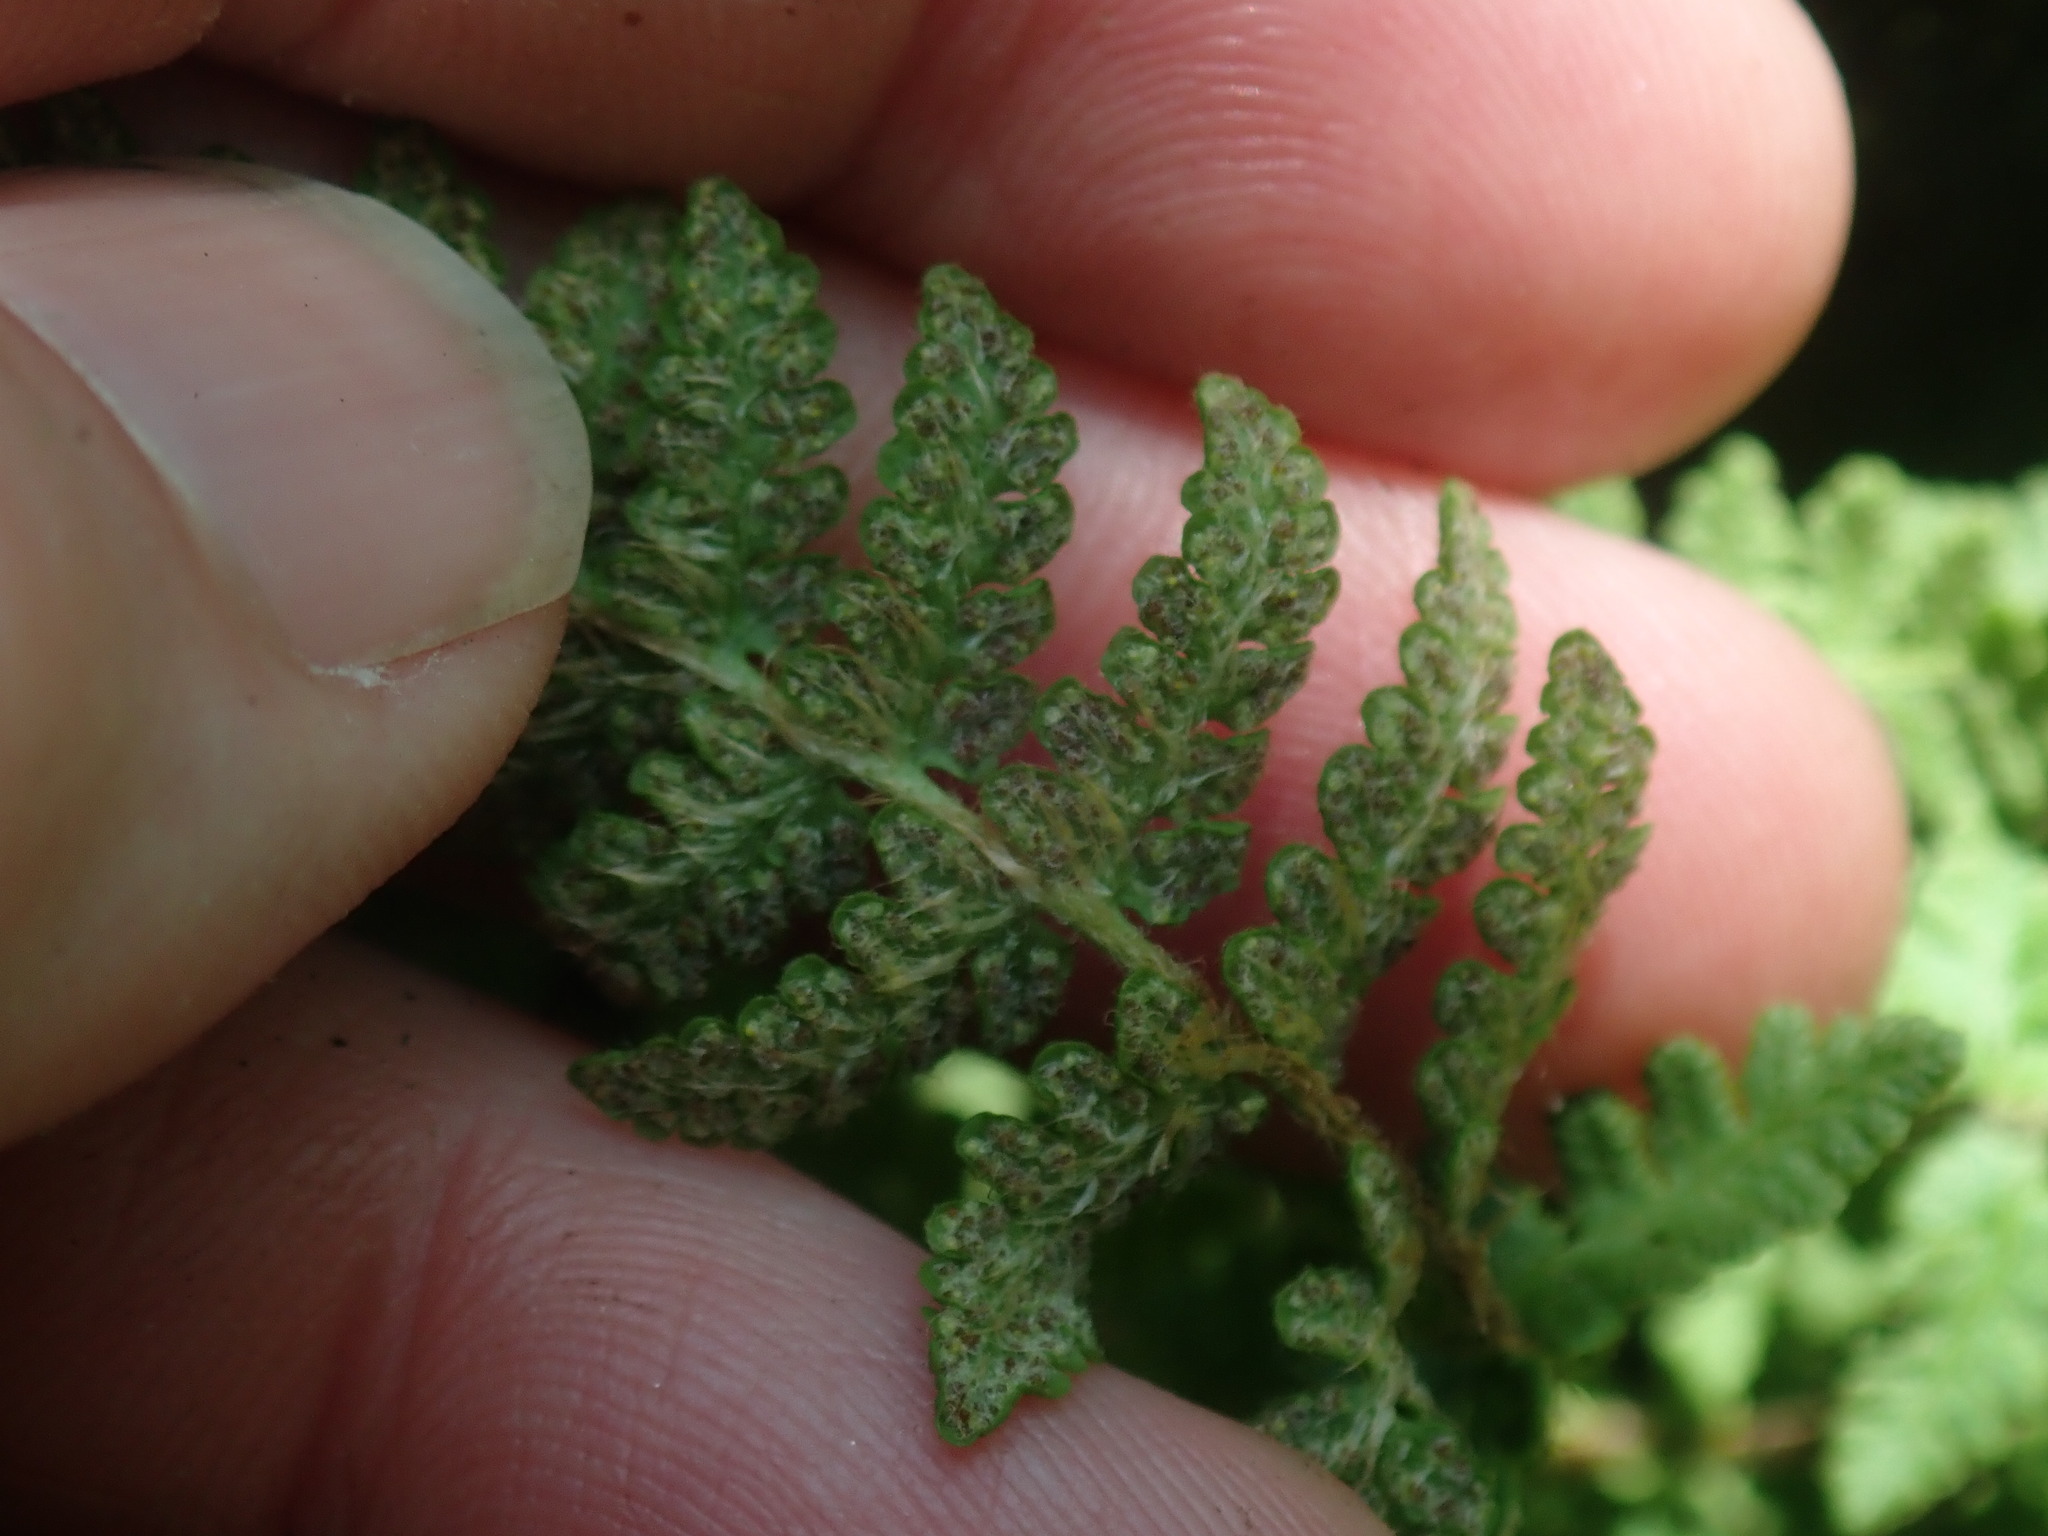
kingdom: Plantae
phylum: Tracheophyta
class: Polypodiopsida
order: Polypodiales
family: Woodsiaceae
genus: Woodsia
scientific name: Woodsia ilvensis
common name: Fragrant woodsia
